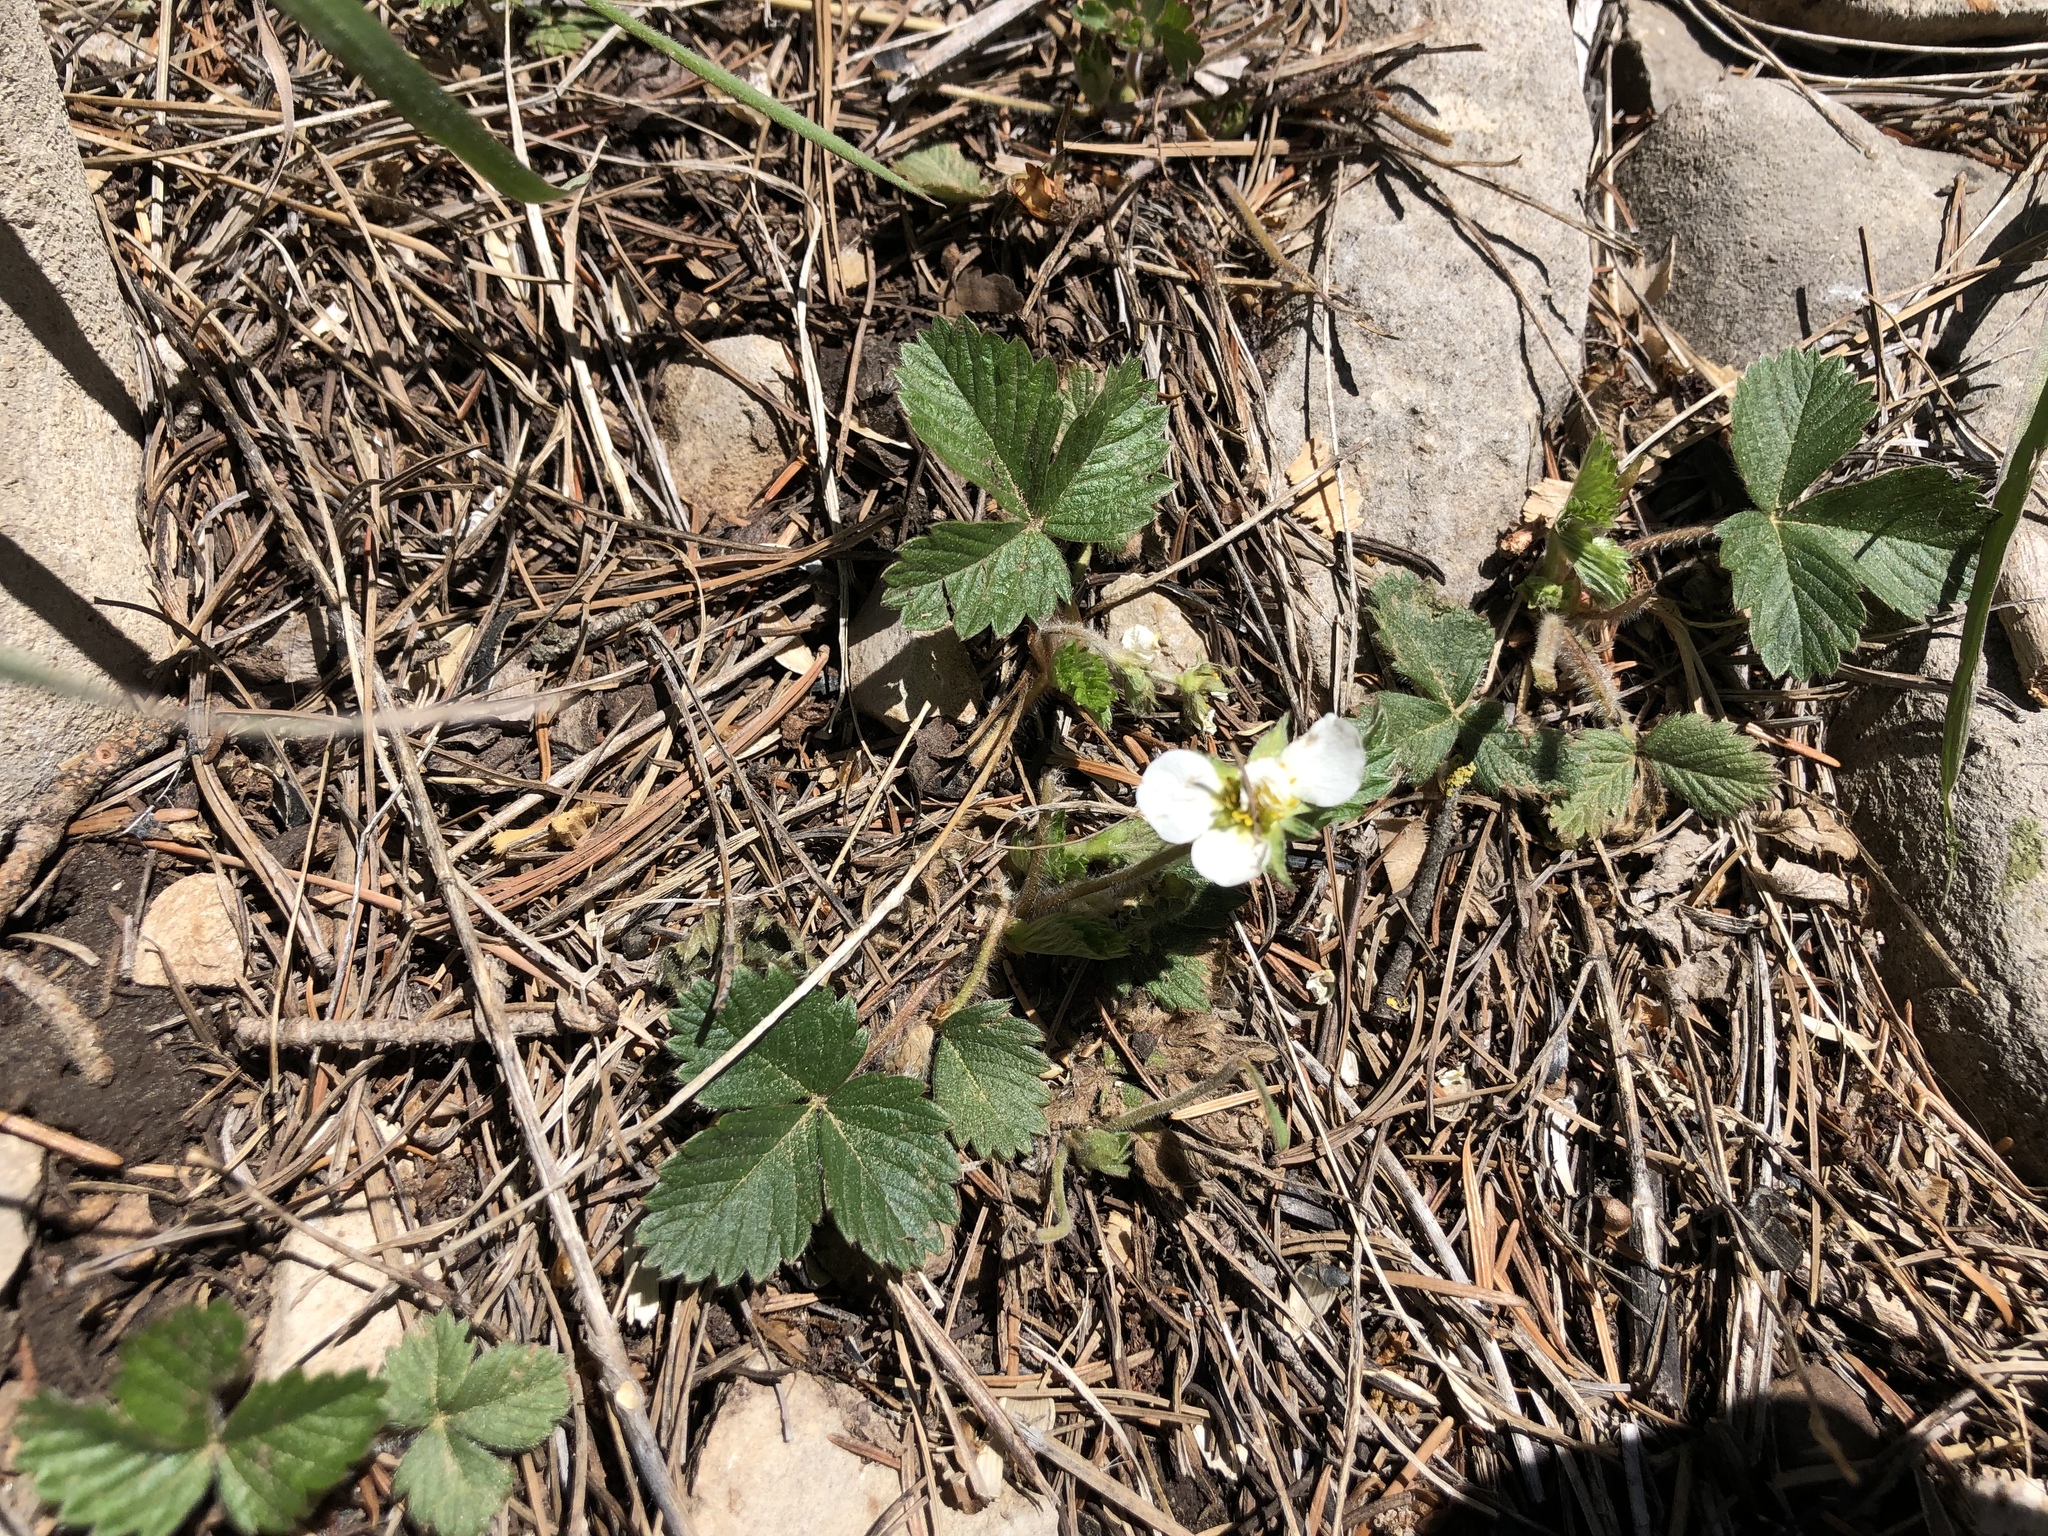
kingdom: Plantae
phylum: Tracheophyta
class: Magnoliopsida
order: Rosales
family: Rosaceae
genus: Fragaria
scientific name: Fragaria vesca
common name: Wild strawberry
